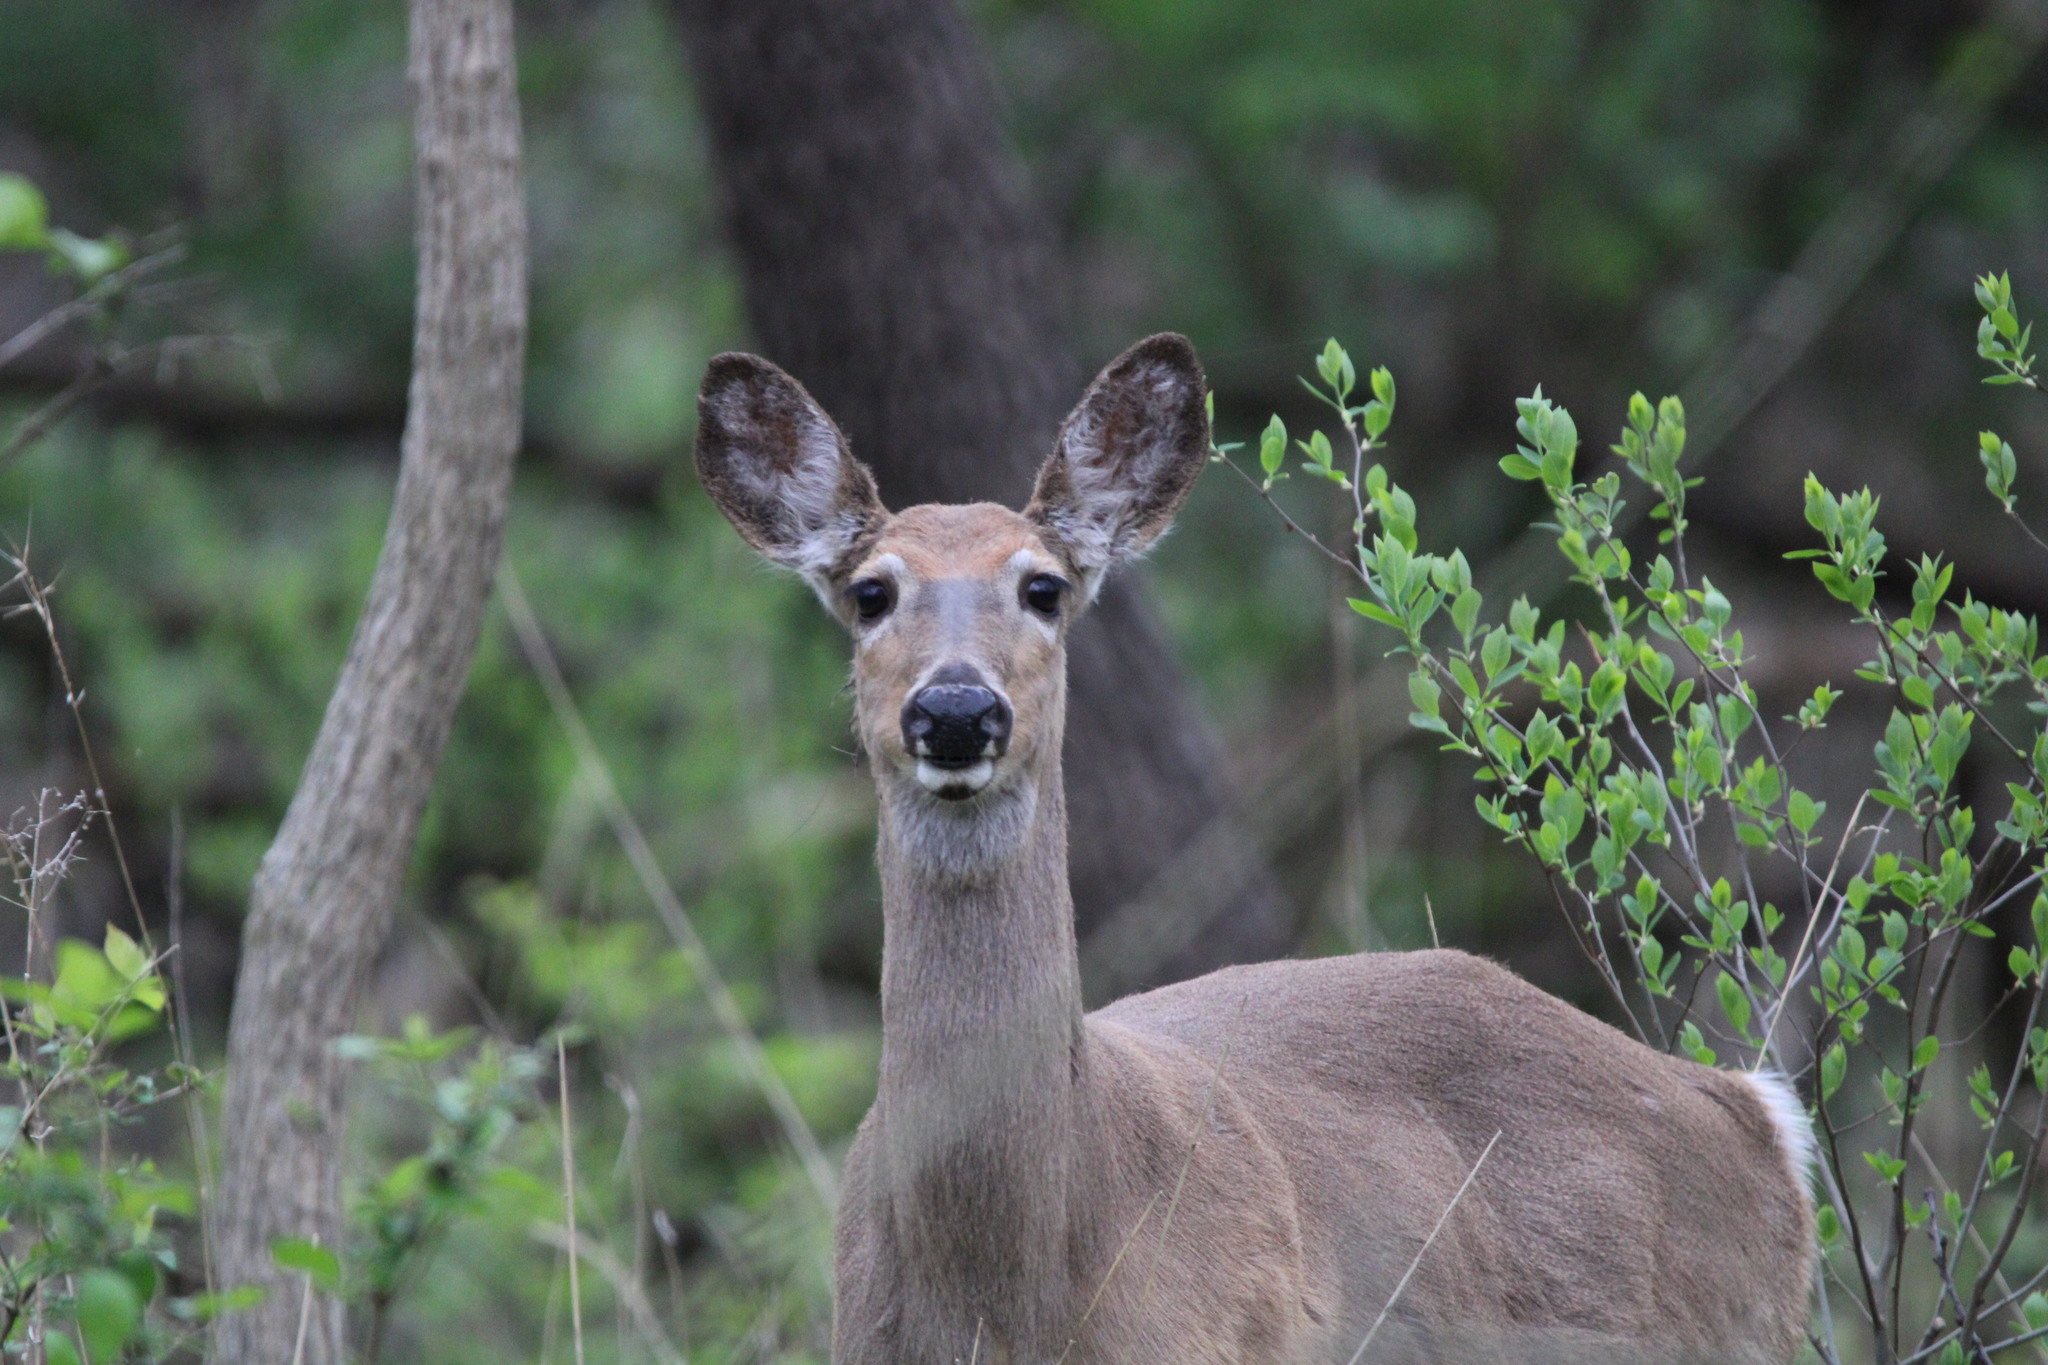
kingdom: Animalia
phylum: Chordata
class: Mammalia
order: Artiodactyla
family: Cervidae
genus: Odocoileus
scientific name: Odocoileus virginianus
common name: White-tailed deer
